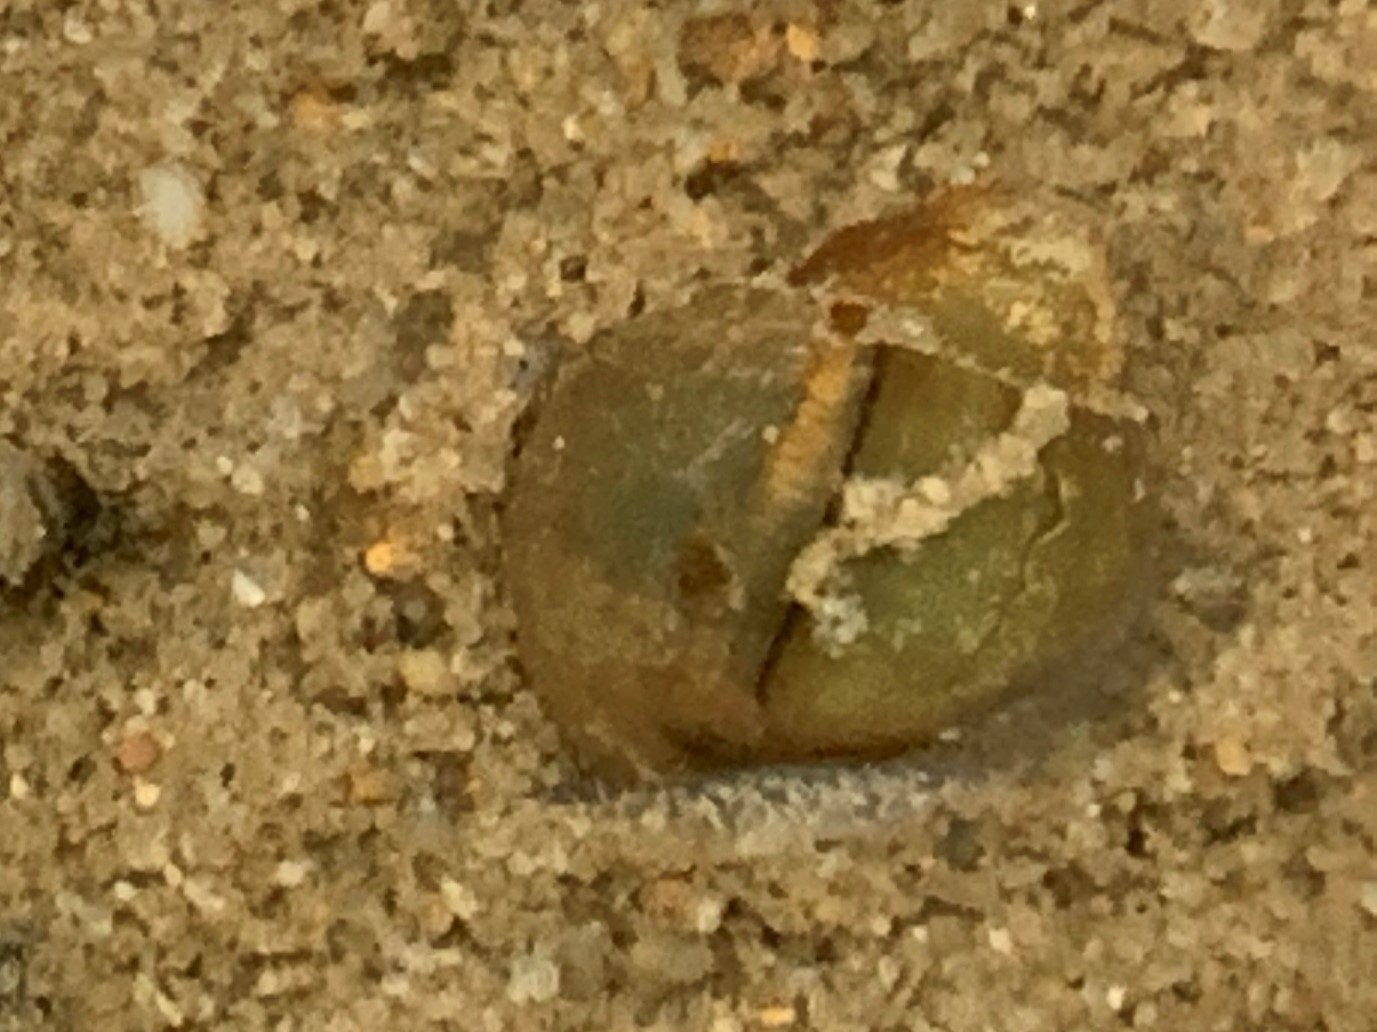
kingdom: Animalia
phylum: Mollusca
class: Gastropoda
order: Architaenioglossa
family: Viviparidae
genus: Campeloma
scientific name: Campeloma decisum
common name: Pointed campeloma
